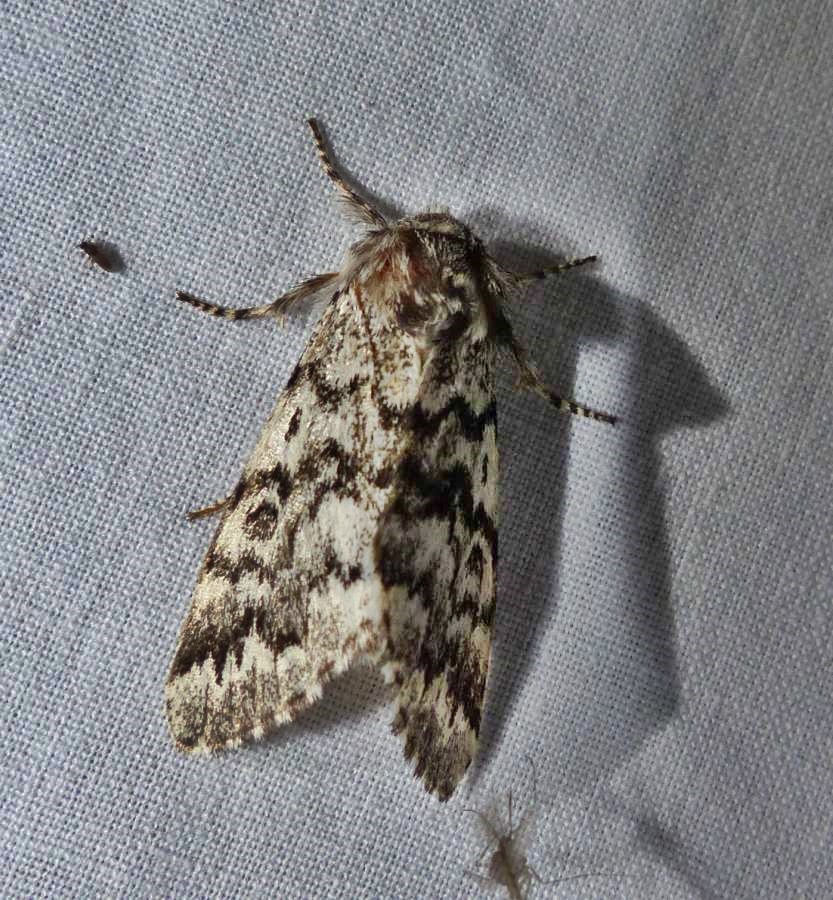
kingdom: Animalia
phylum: Arthropoda
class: Insecta
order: Lepidoptera
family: Noctuidae
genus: Panthea
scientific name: Panthea acronyctoides
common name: Black zigzag moth
